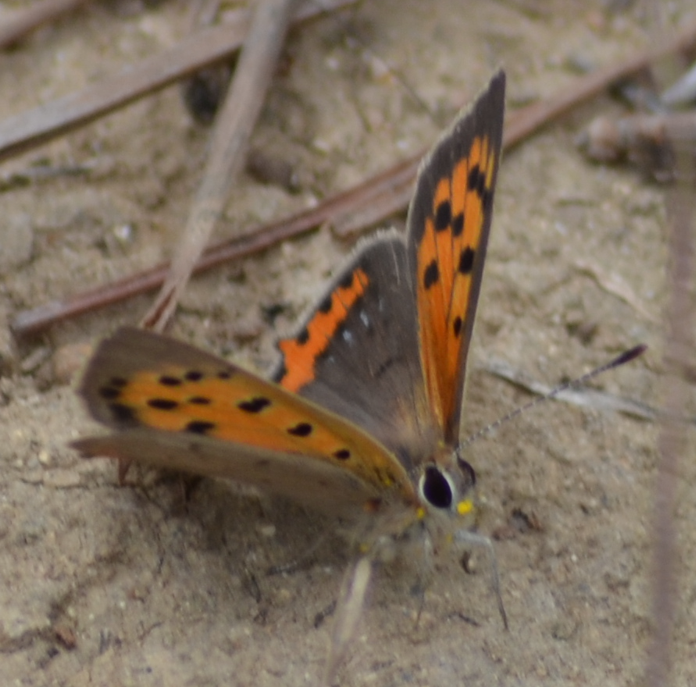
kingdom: Animalia
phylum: Arthropoda
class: Insecta
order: Lepidoptera
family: Lycaenidae
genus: Lycaena
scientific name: Lycaena phlaeas
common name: Small copper
